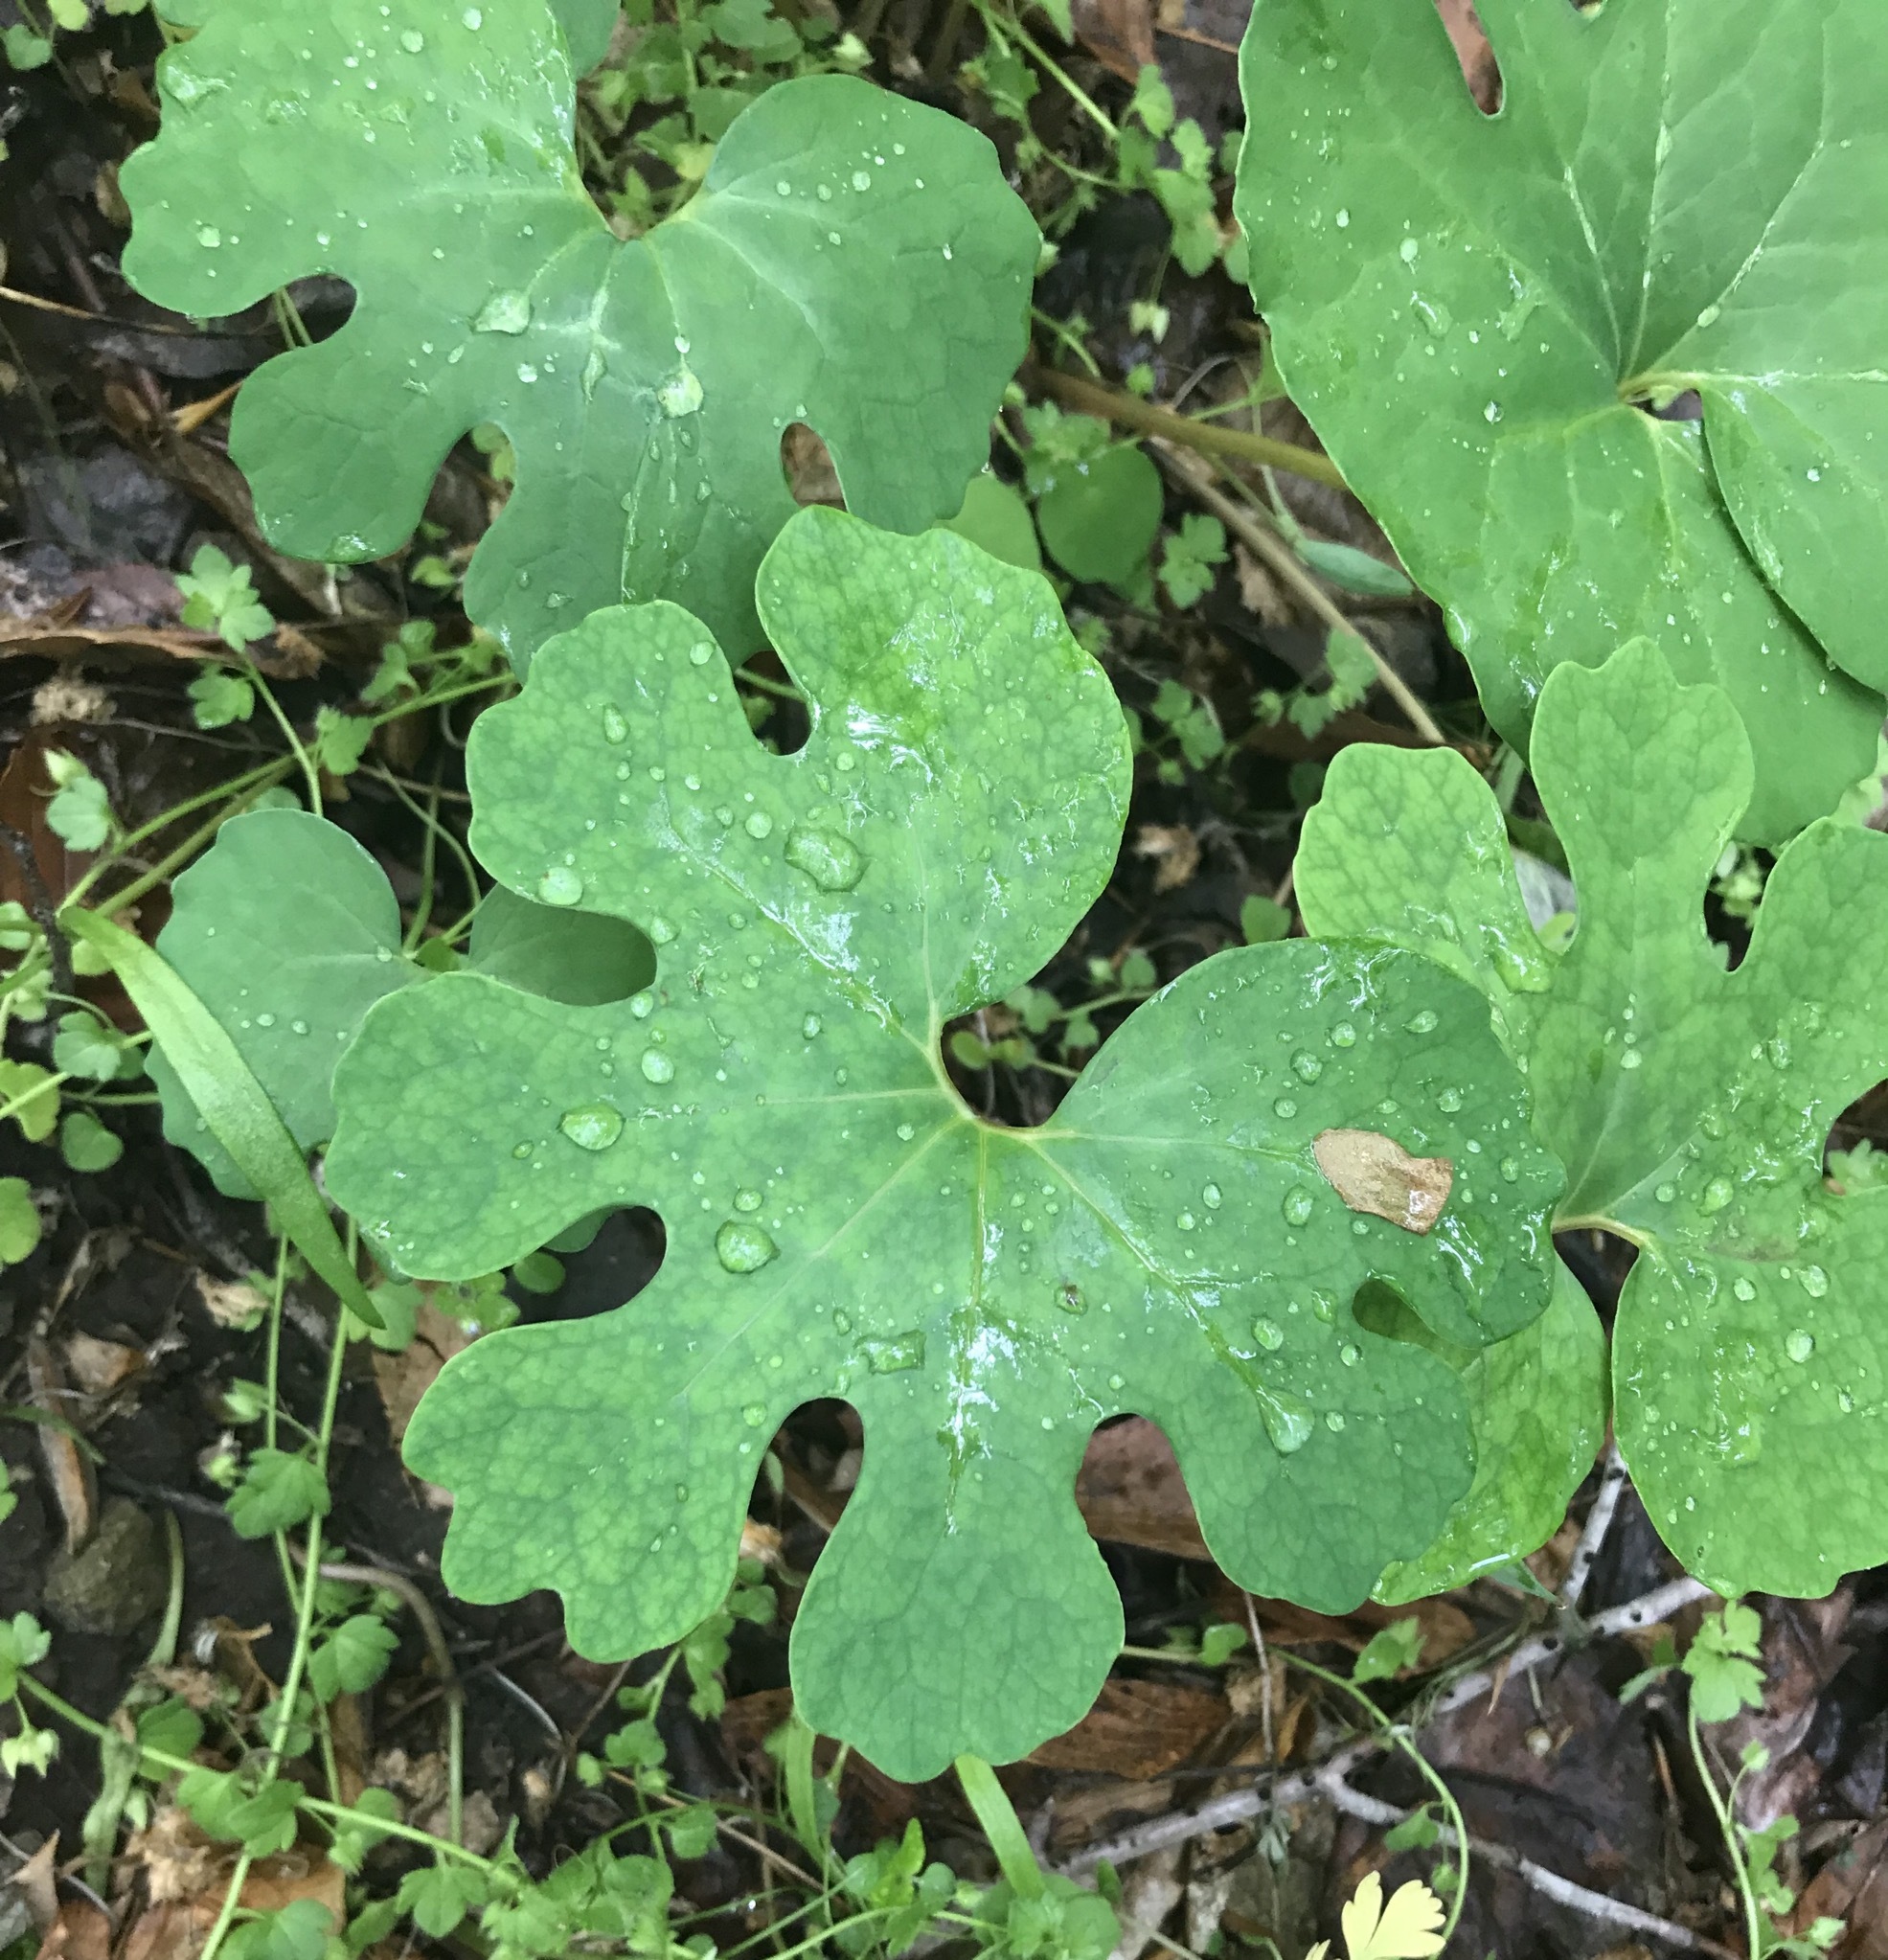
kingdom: Plantae
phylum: Tracheophyta
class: Magnoliopsida
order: Ranunculales
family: Papaveraceae
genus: Sanguinaria
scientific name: Sanguinaria canadensis
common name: Bloodroot
